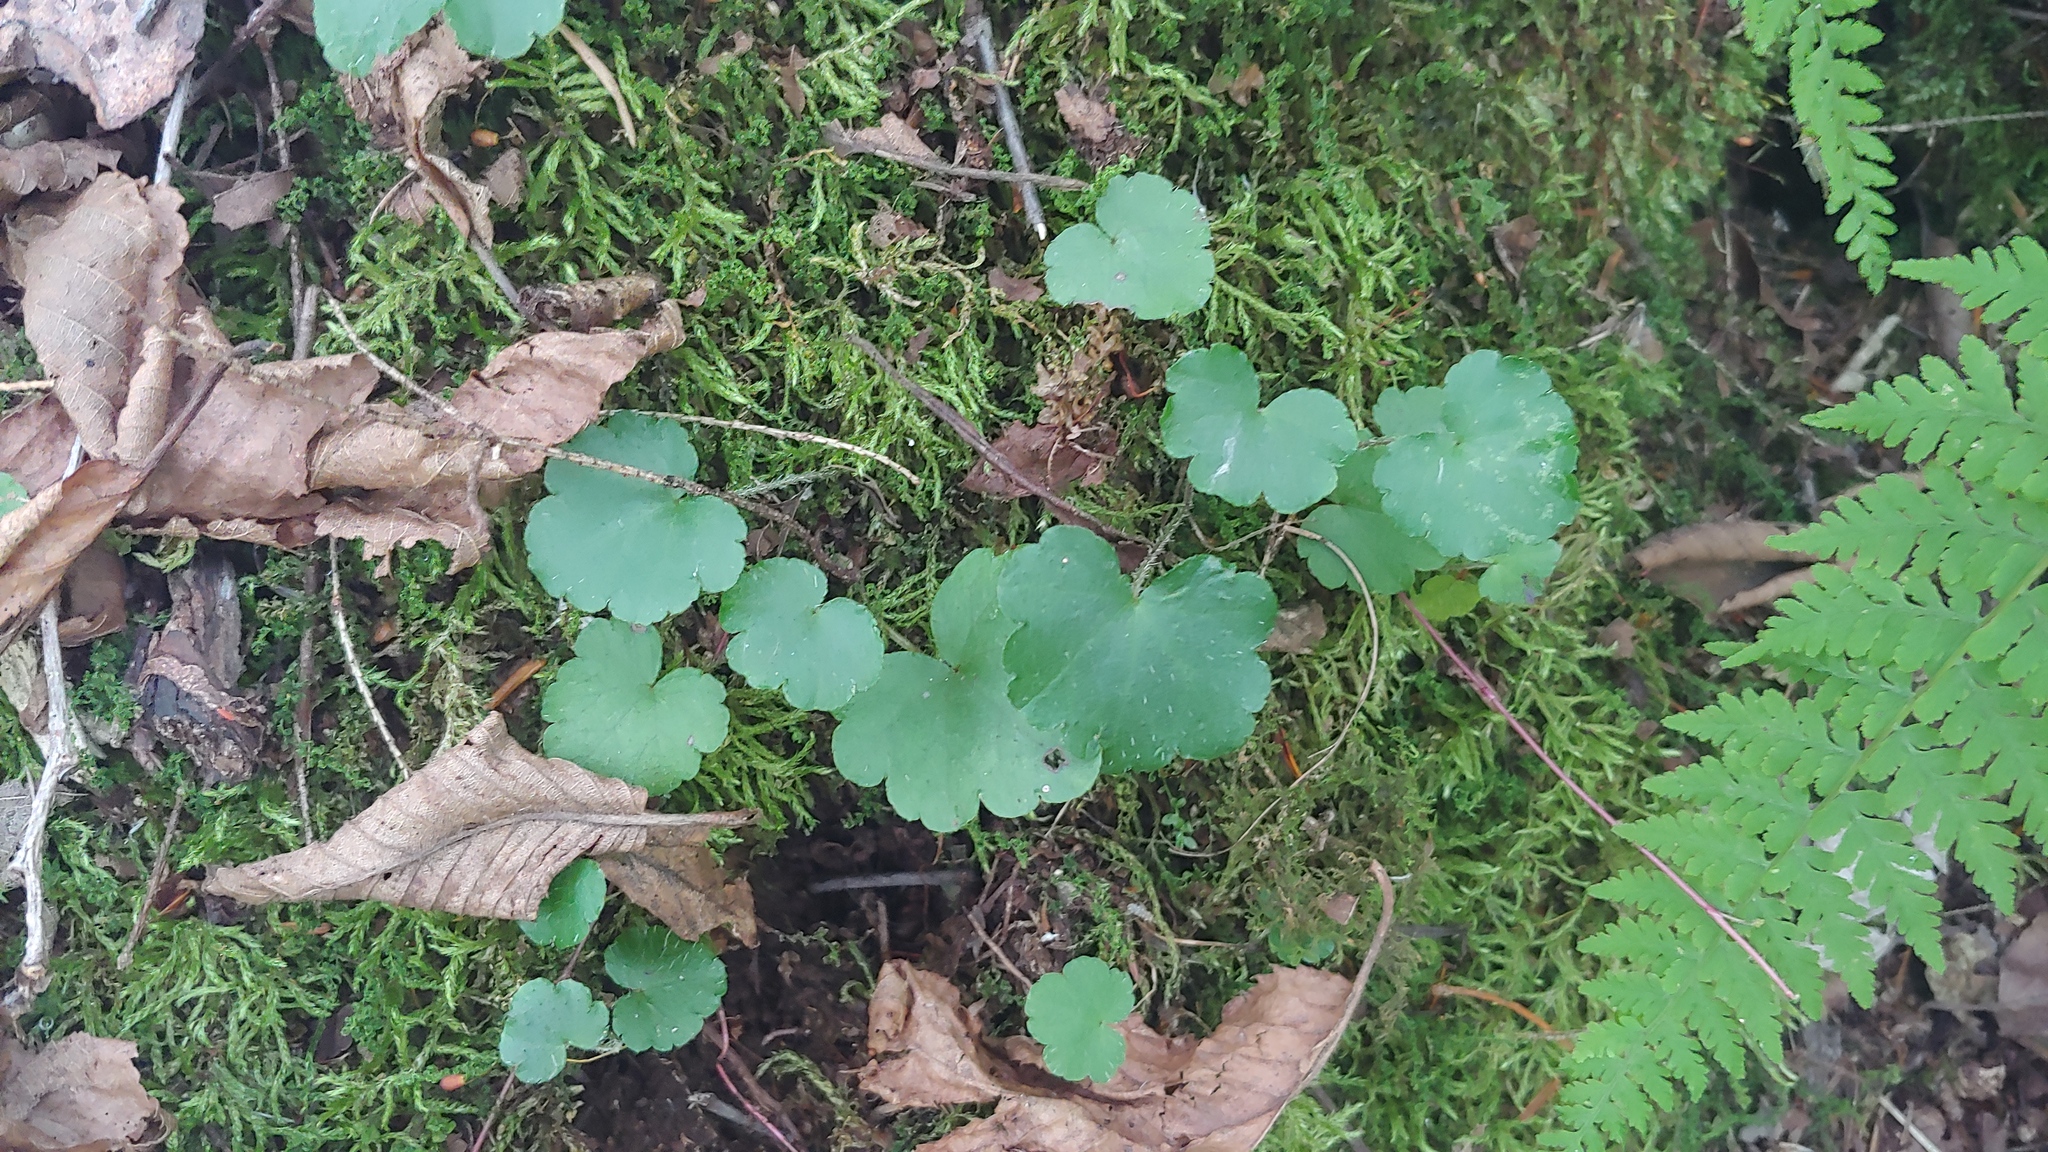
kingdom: Plantae
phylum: Tracheophyta
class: Magnoliopsida
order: Saxifragales
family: Saxifragaceae
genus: Mitella
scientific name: Mitella nuda
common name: Bare-stemmed bishop's-cap
